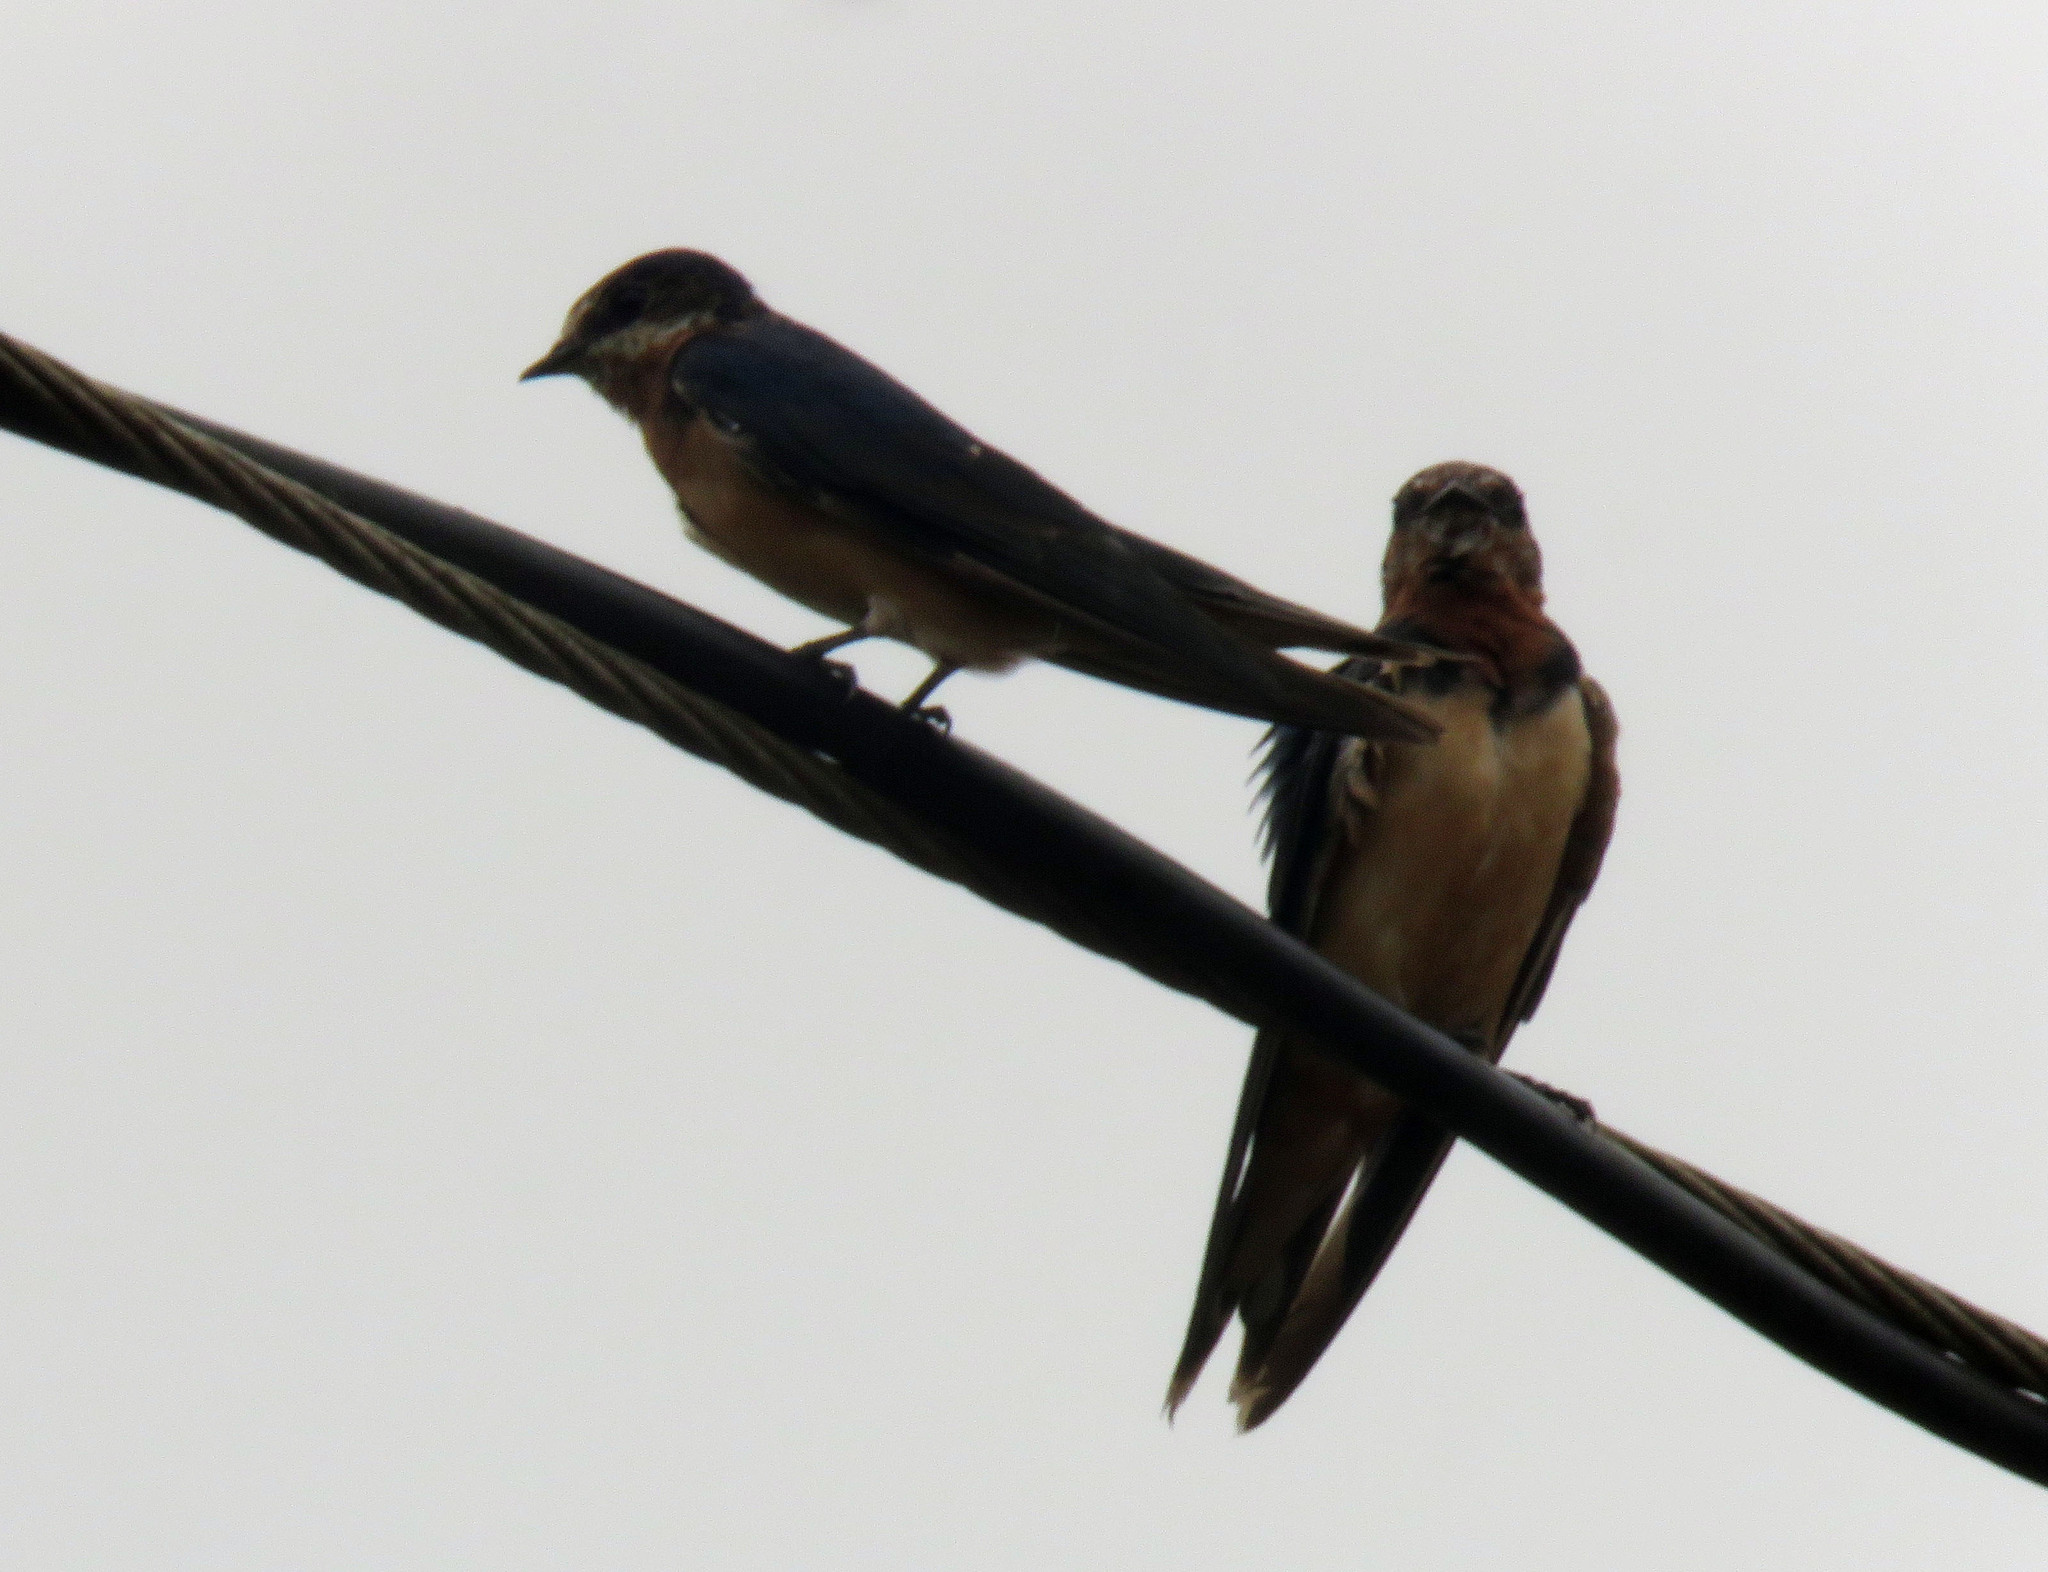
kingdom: Animalia
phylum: Chordata
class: Aves
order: Passeriformes
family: Hirundinidae
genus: Hirundo
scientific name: Hirundo rustica
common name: Barn swallow
